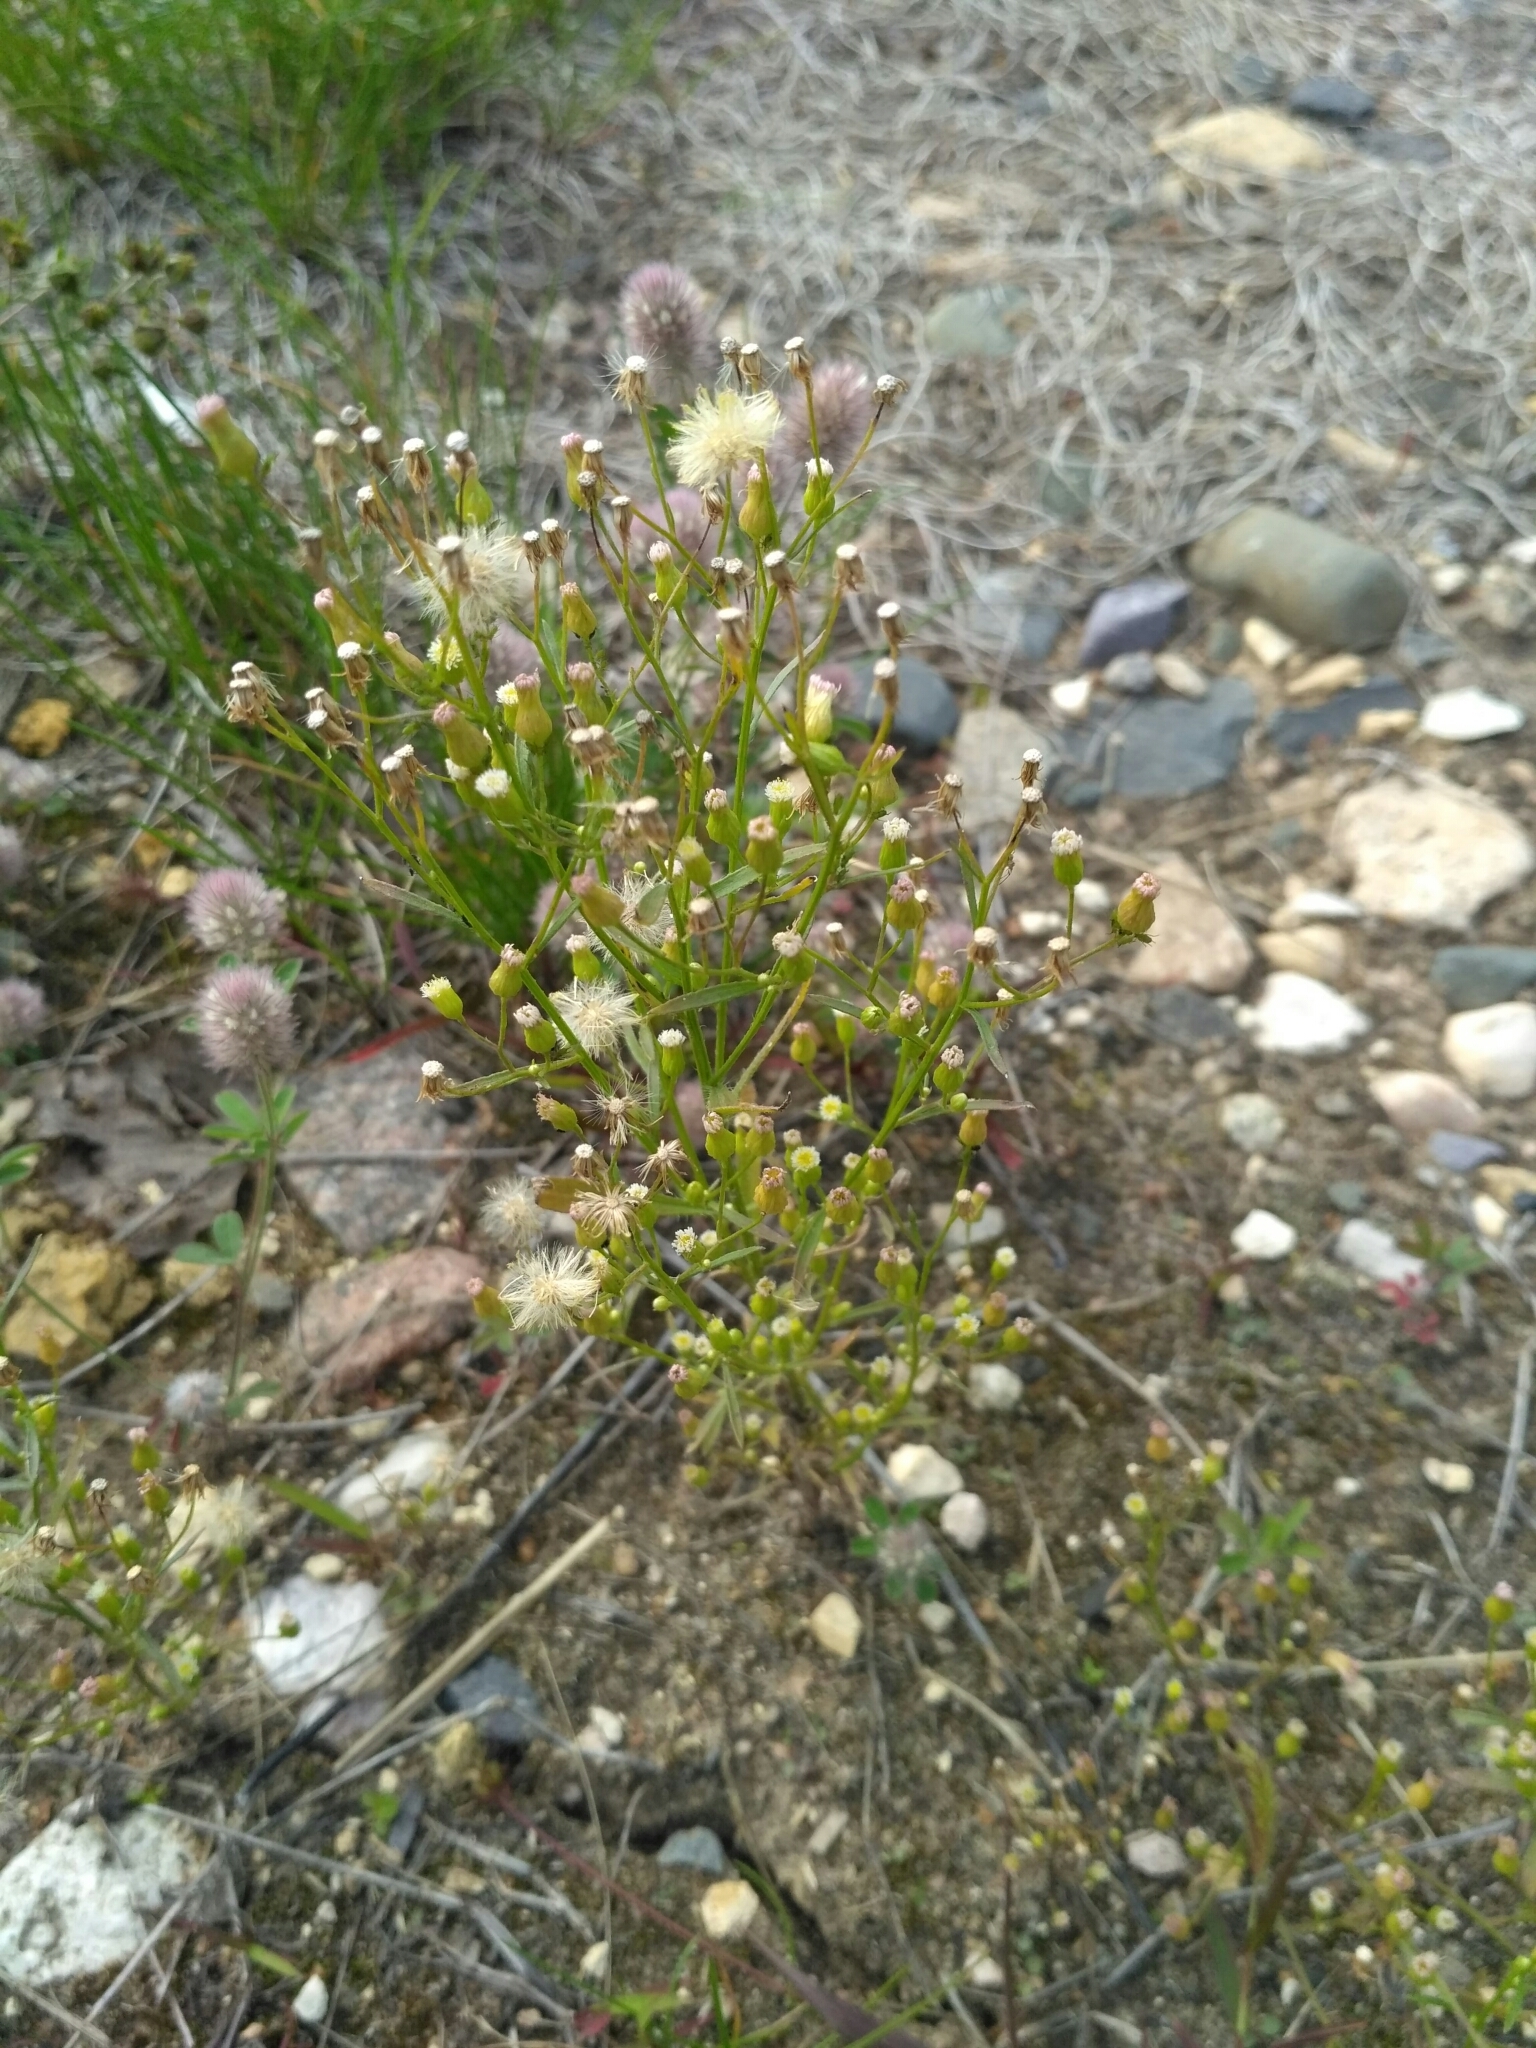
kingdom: Plantae
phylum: Tracheophyta
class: Magnoliopsida
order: Asterales
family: Asteraceae
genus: Erigeron
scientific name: Erigeron canadensis
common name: Canadian fleabane
